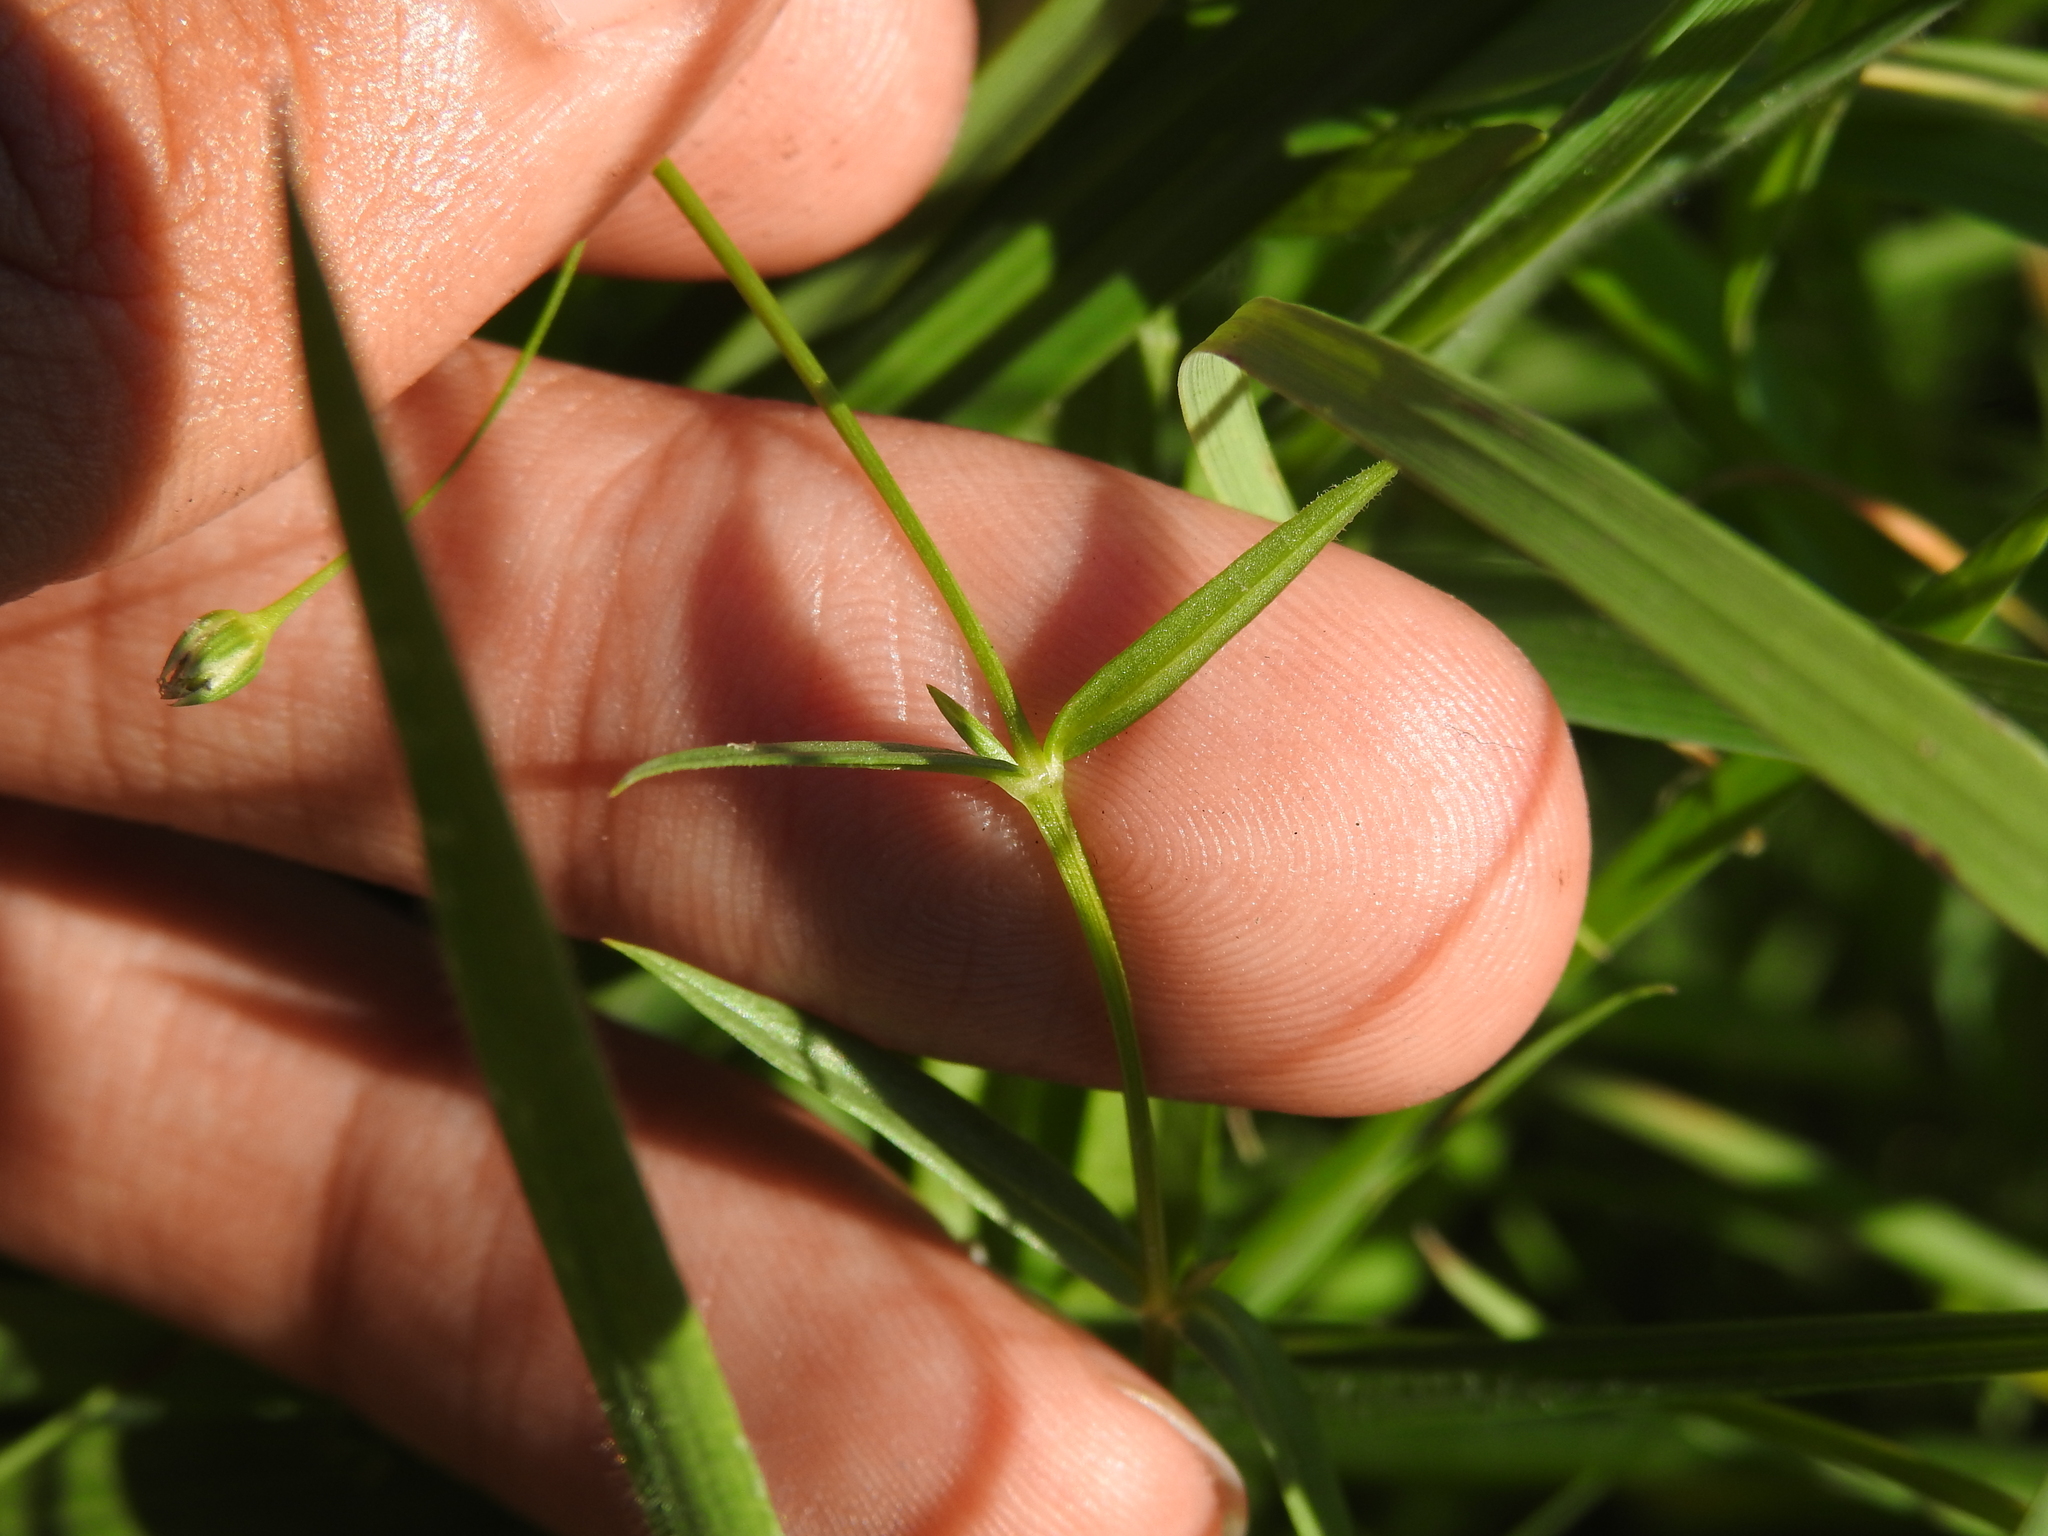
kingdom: Plantae
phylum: Tracheophyta
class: Magnoliopsida
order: Caryophyllales
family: Caryophyllaceae
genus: Stellaria
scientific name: Stellaria graminea
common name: Grass-like starwort
